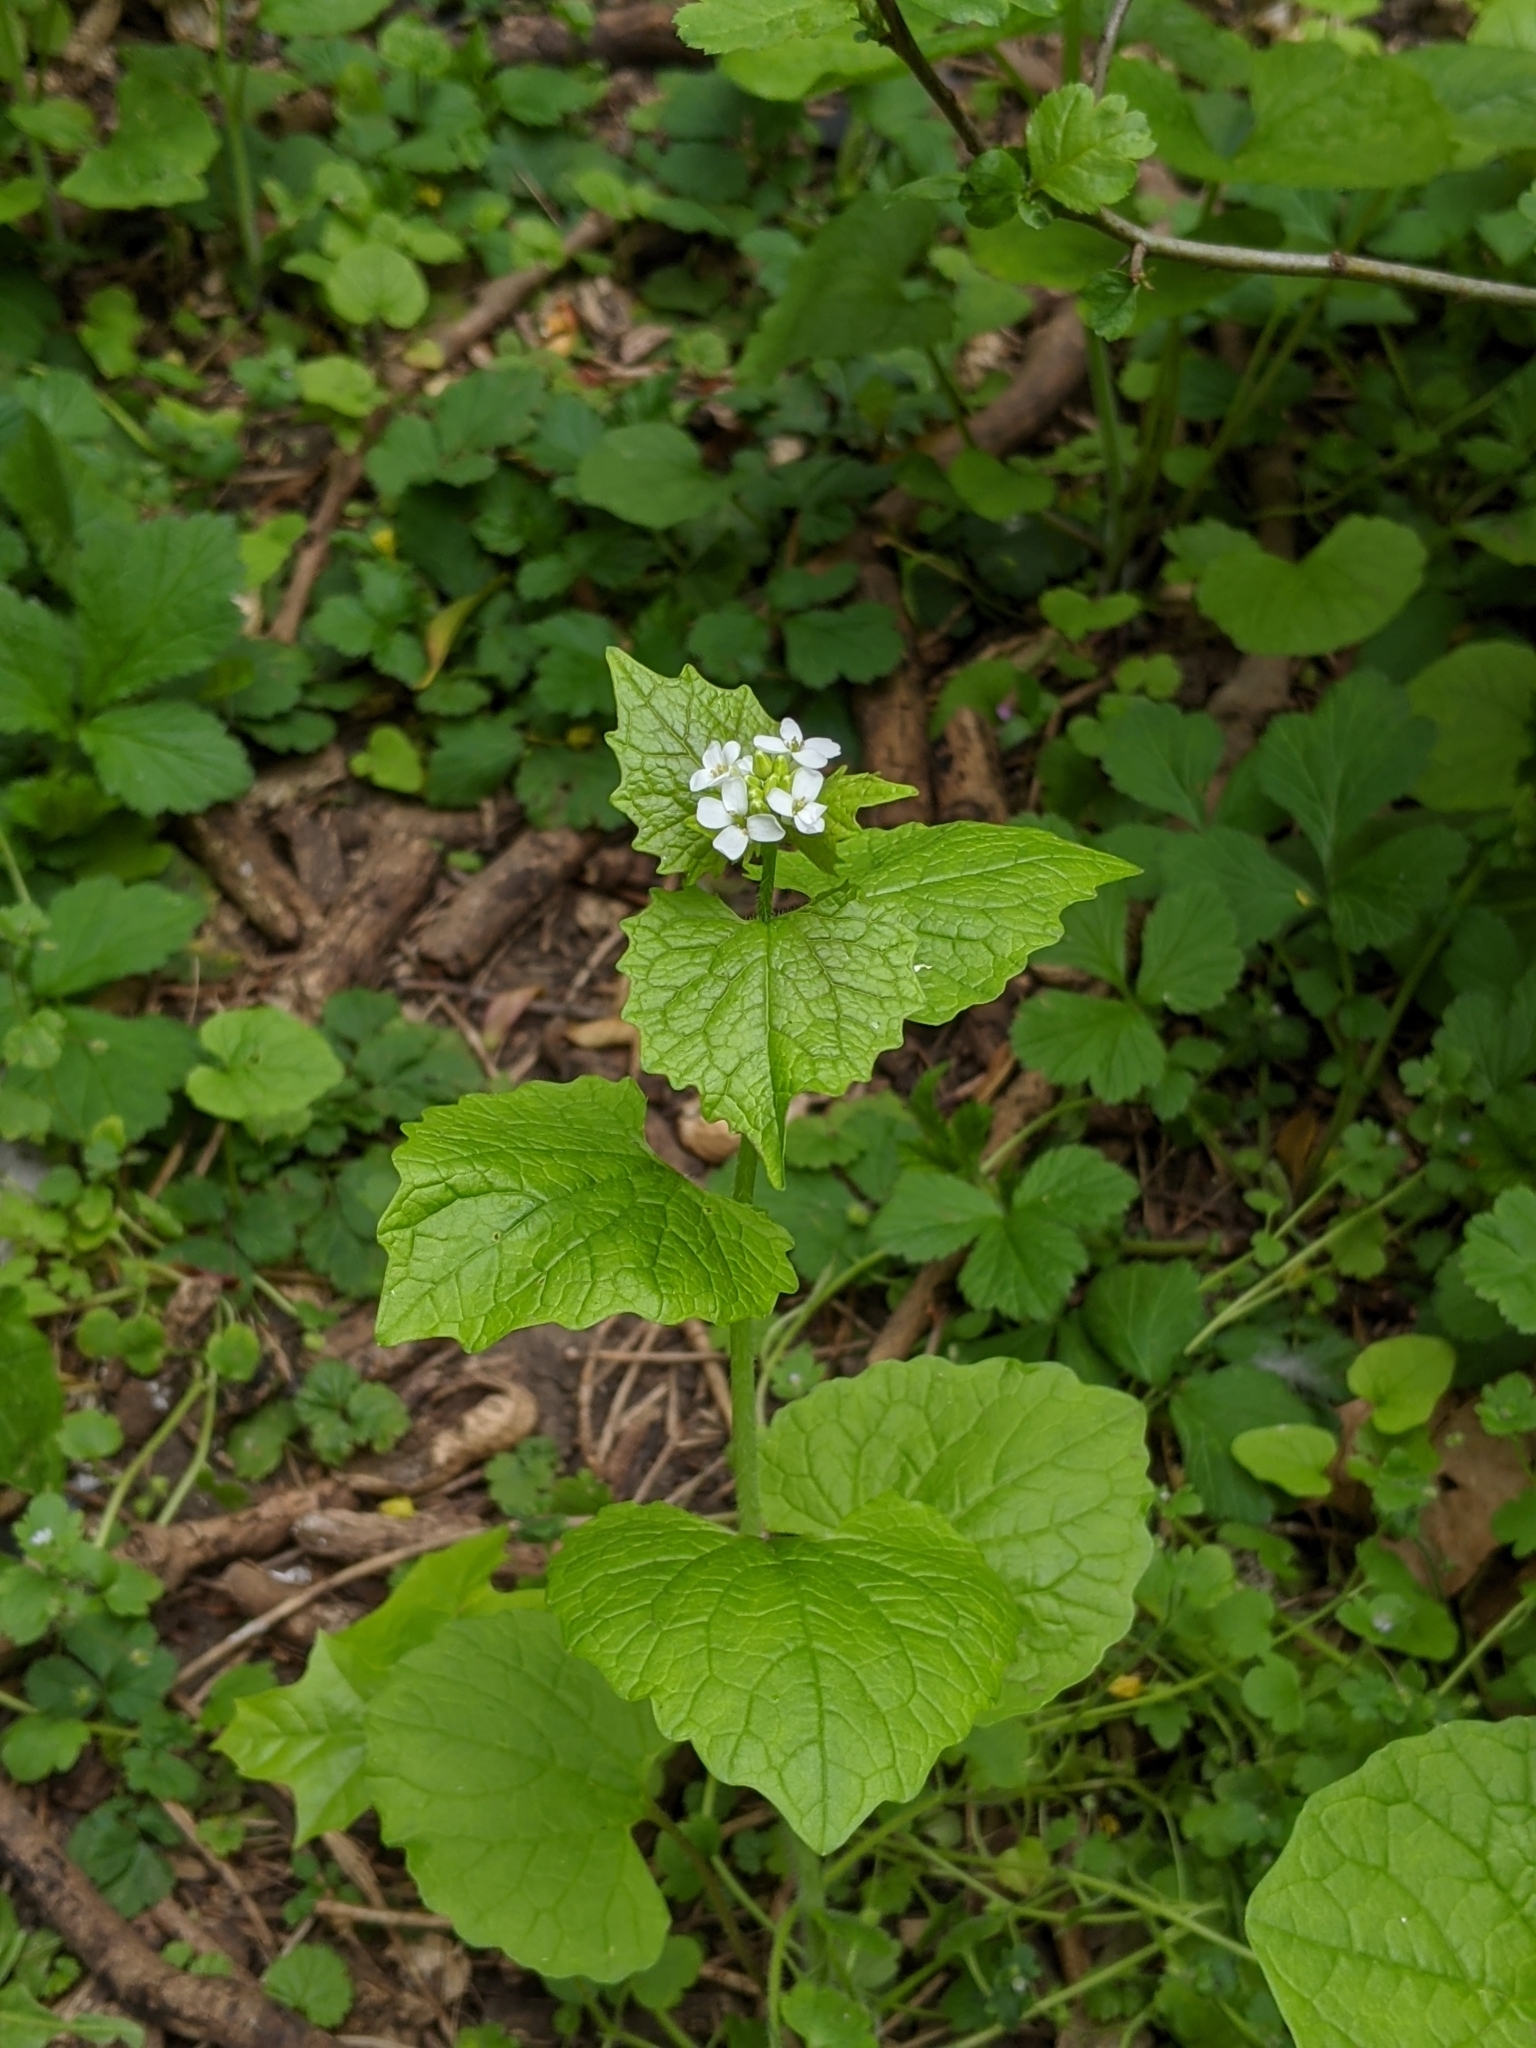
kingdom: Plantae
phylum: Tracheophyta
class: Magnoliopsida
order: Brassicales
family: Brassicaceae
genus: Alliaria
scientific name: Alliaria petiolata
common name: Garlic mustard
